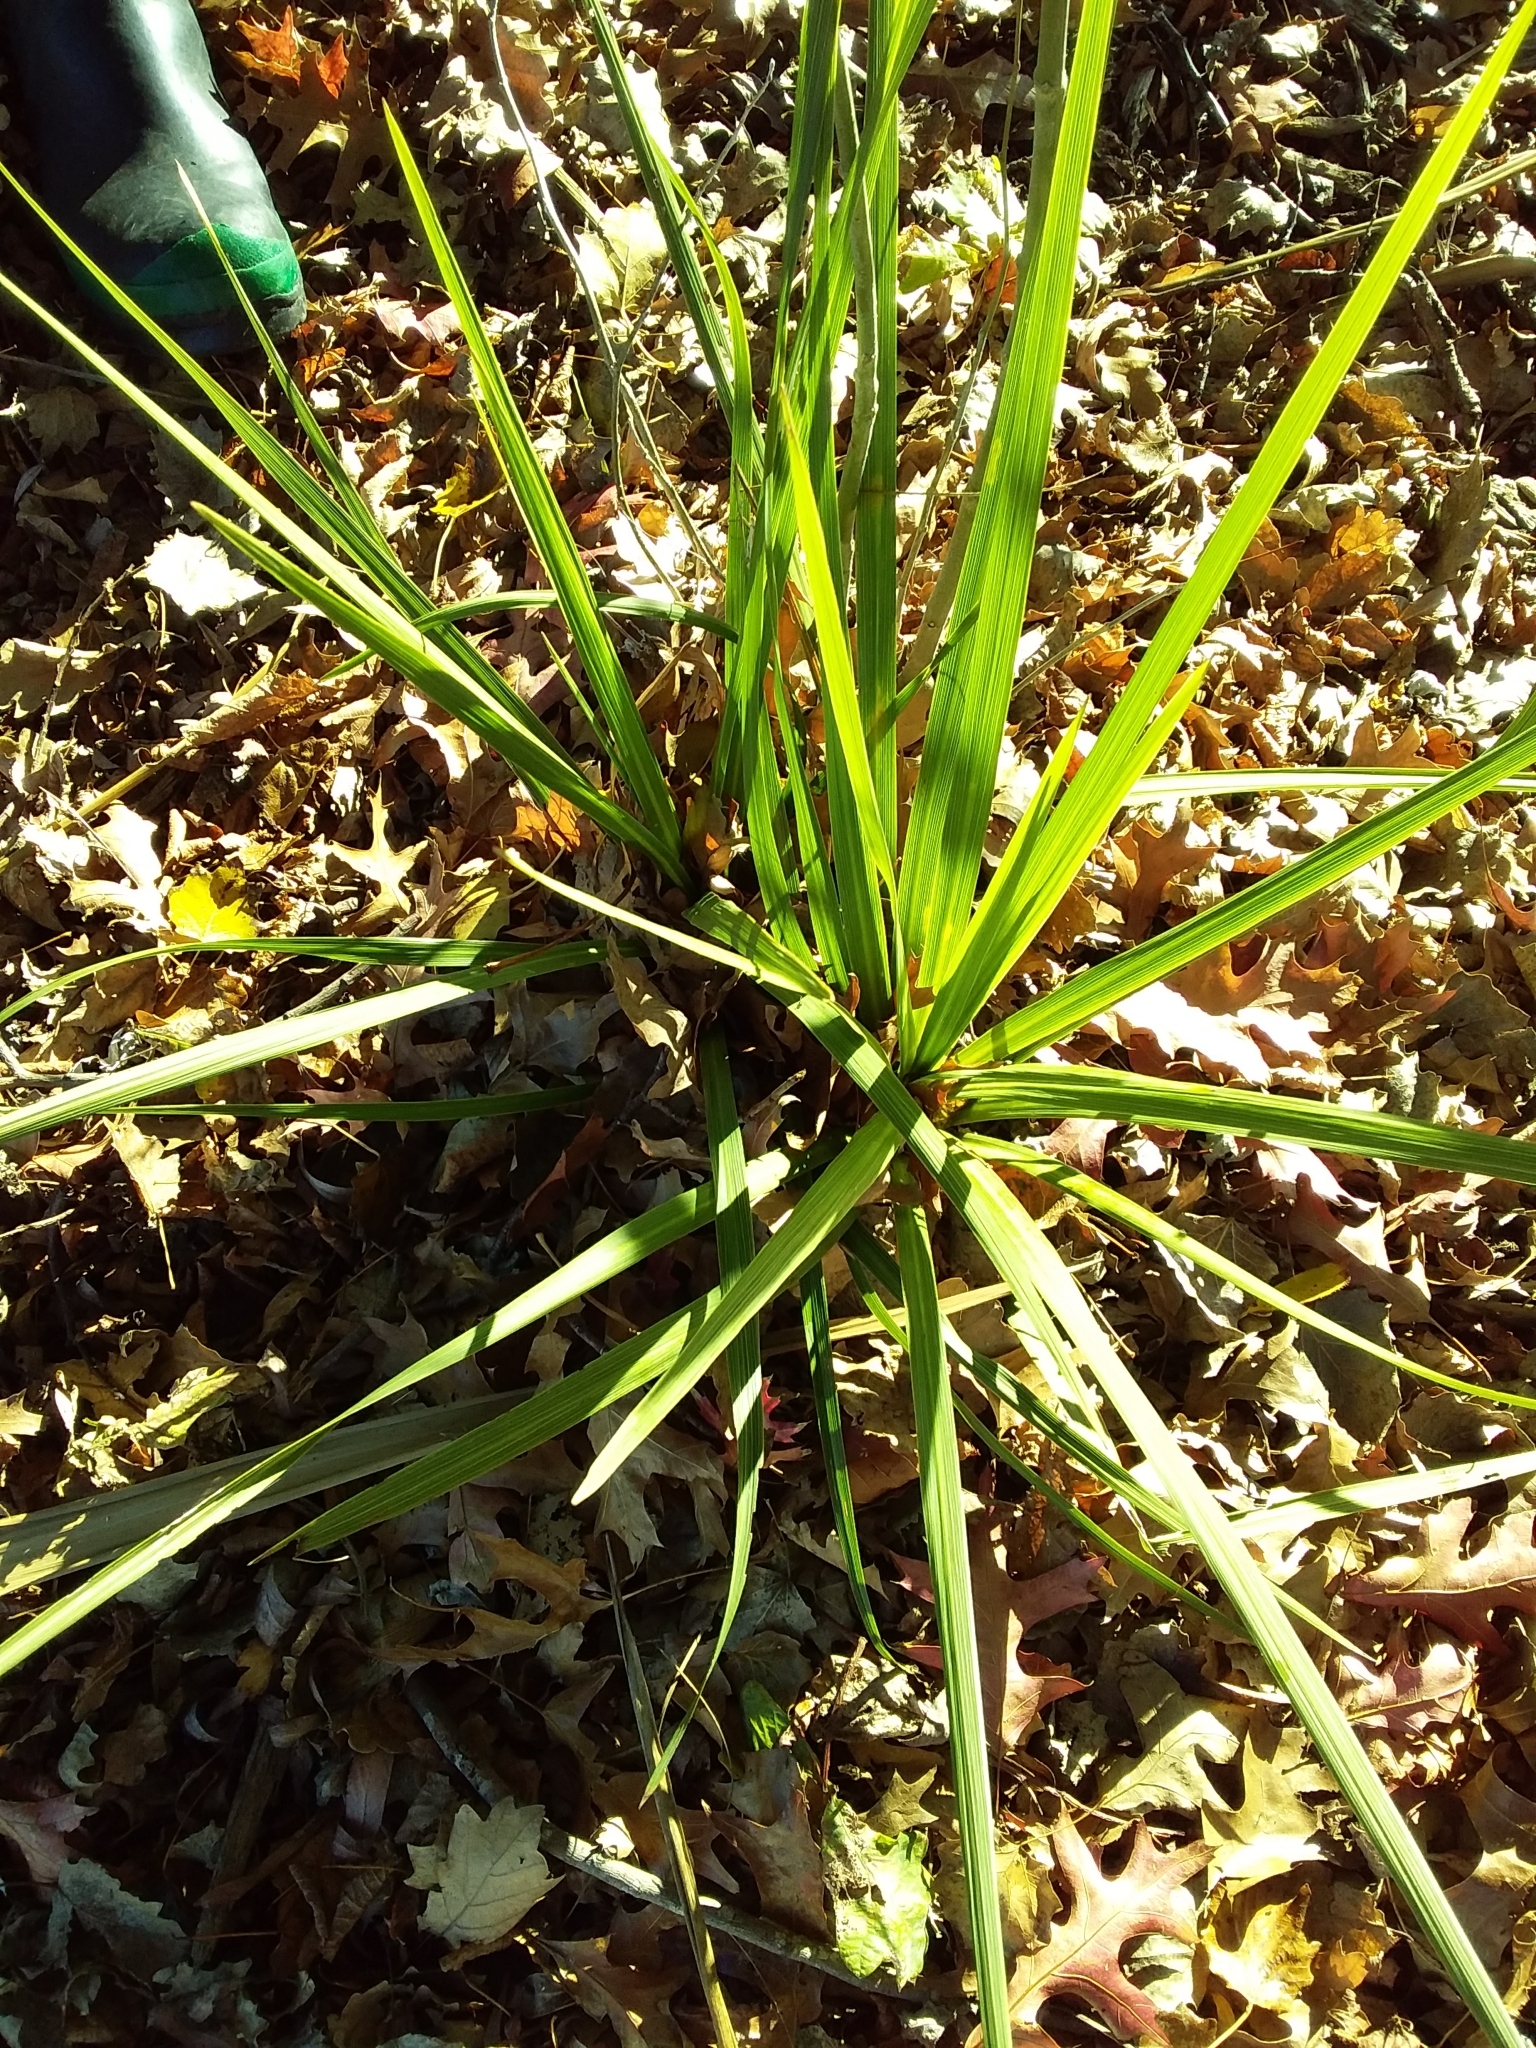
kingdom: Plantae
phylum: Tracheophyta
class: Liliopsida
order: Asparagales
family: Asparagaceae
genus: Cordyline
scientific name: Cordyline australis
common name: Cabbage-palm
